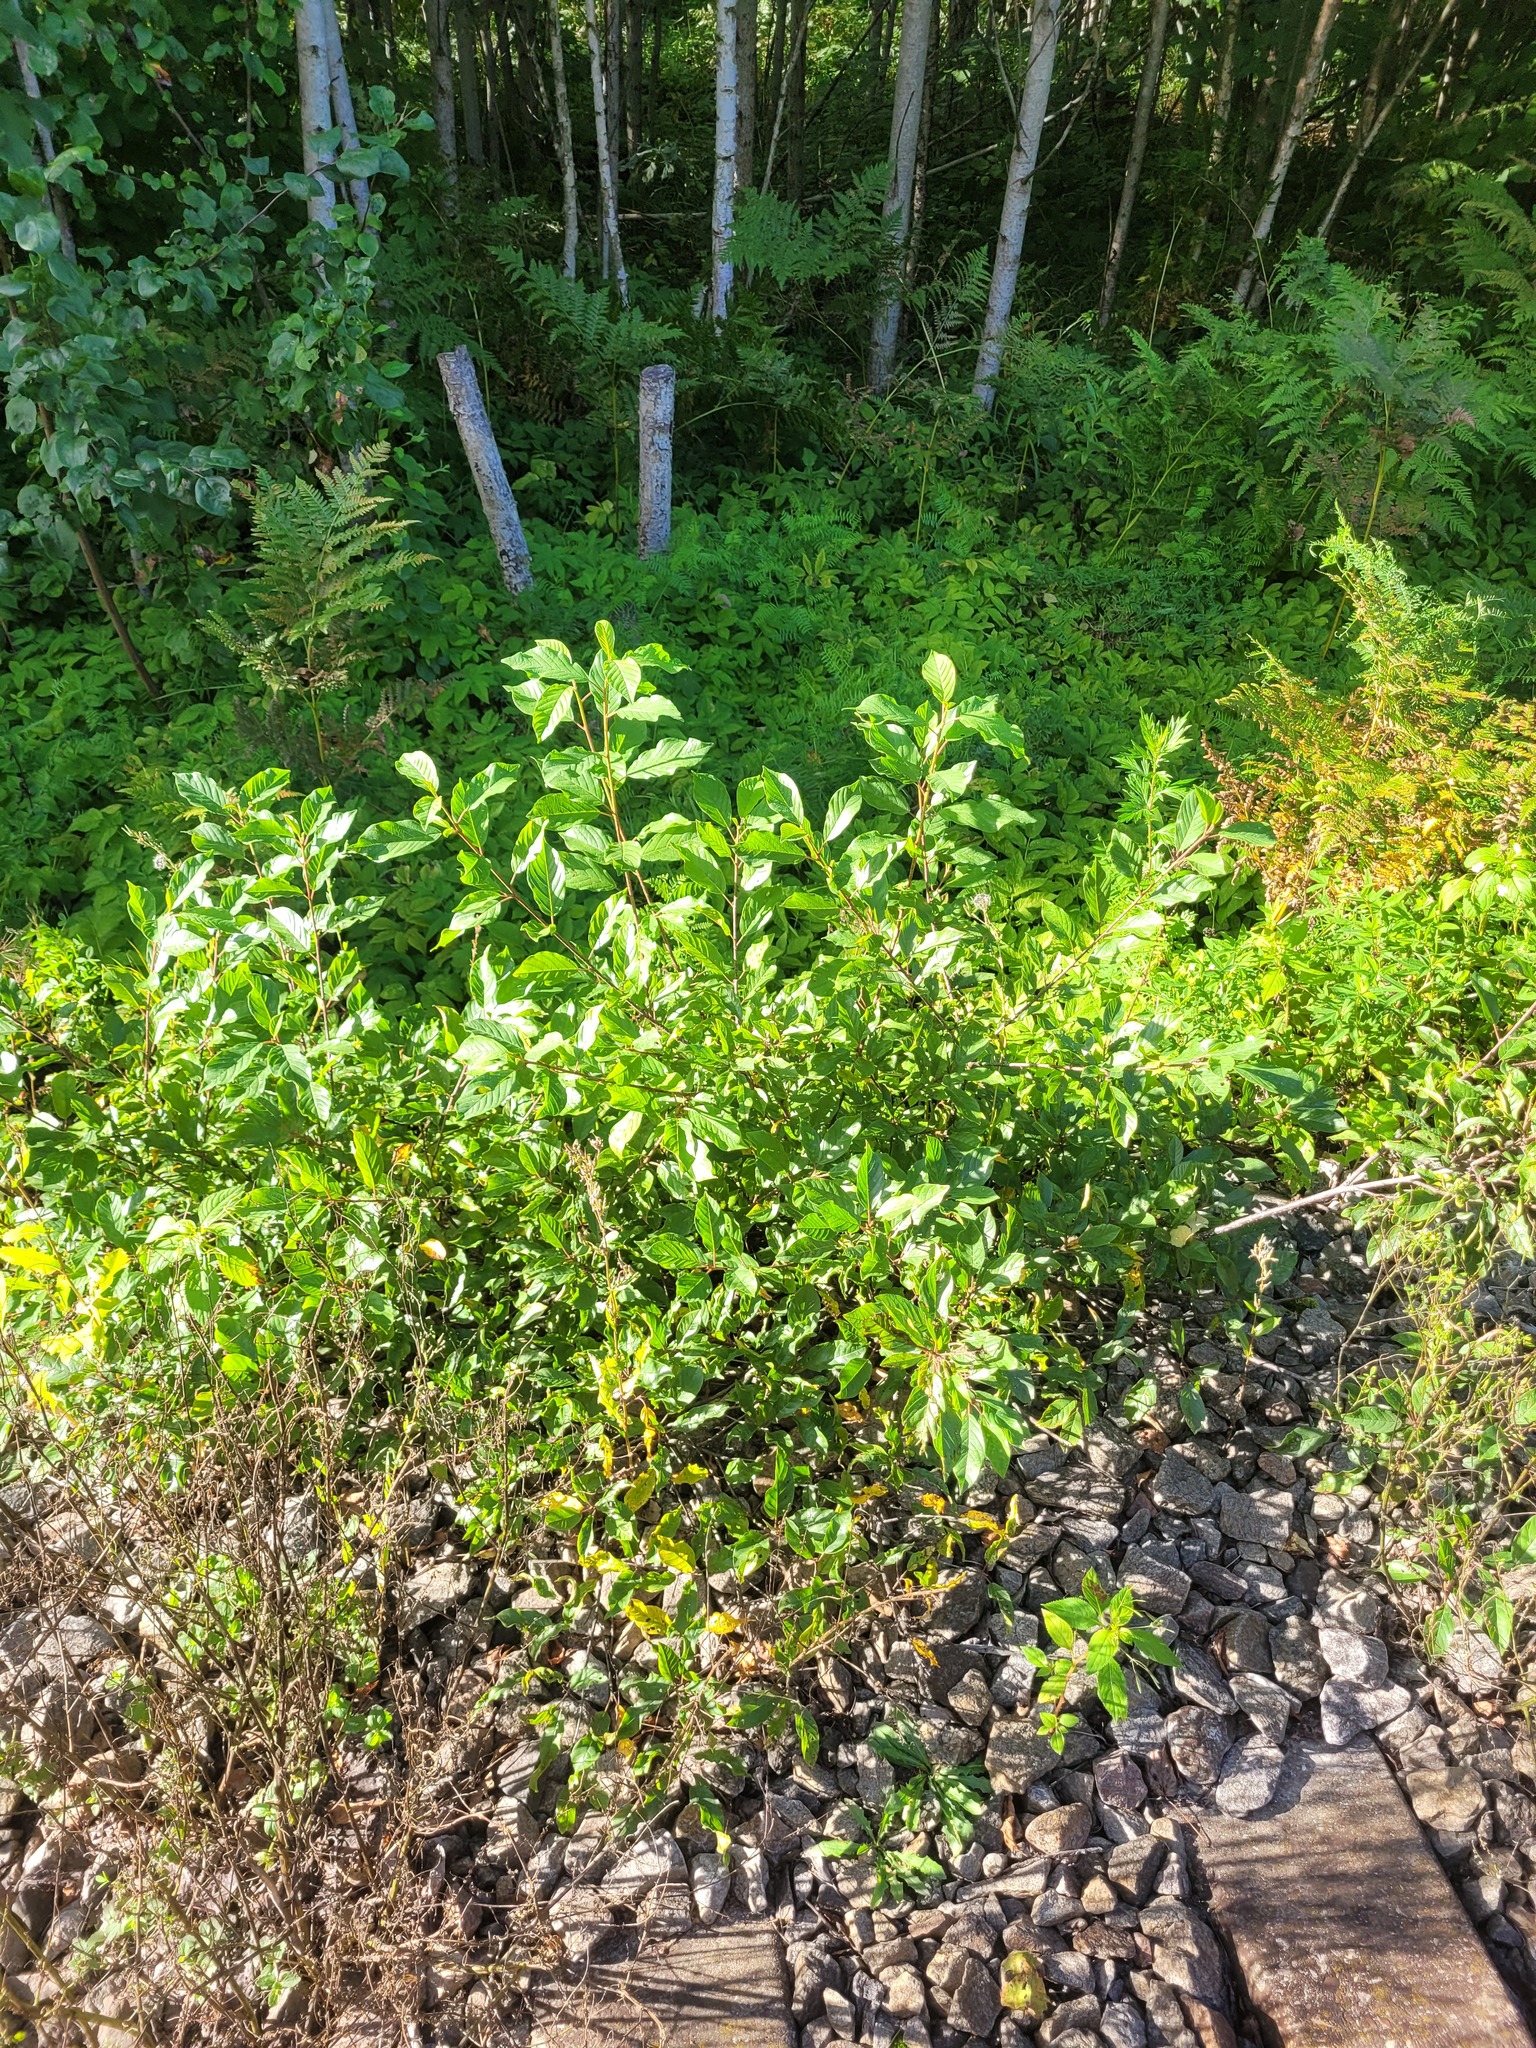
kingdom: Plantae
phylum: Tracheophyta
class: Magnoliopsida
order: Rosales
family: Rhamnaceae
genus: Frangula
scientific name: Frangula alnus
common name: Alder buckthorn
